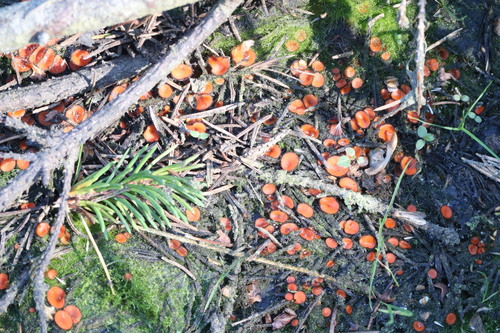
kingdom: Fungi
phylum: Ascomycota
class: Pezizomycetes
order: Pezizales
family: Pyronemataceae
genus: Scutellinia
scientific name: Scutellinia scutellata
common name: Common eyelash
